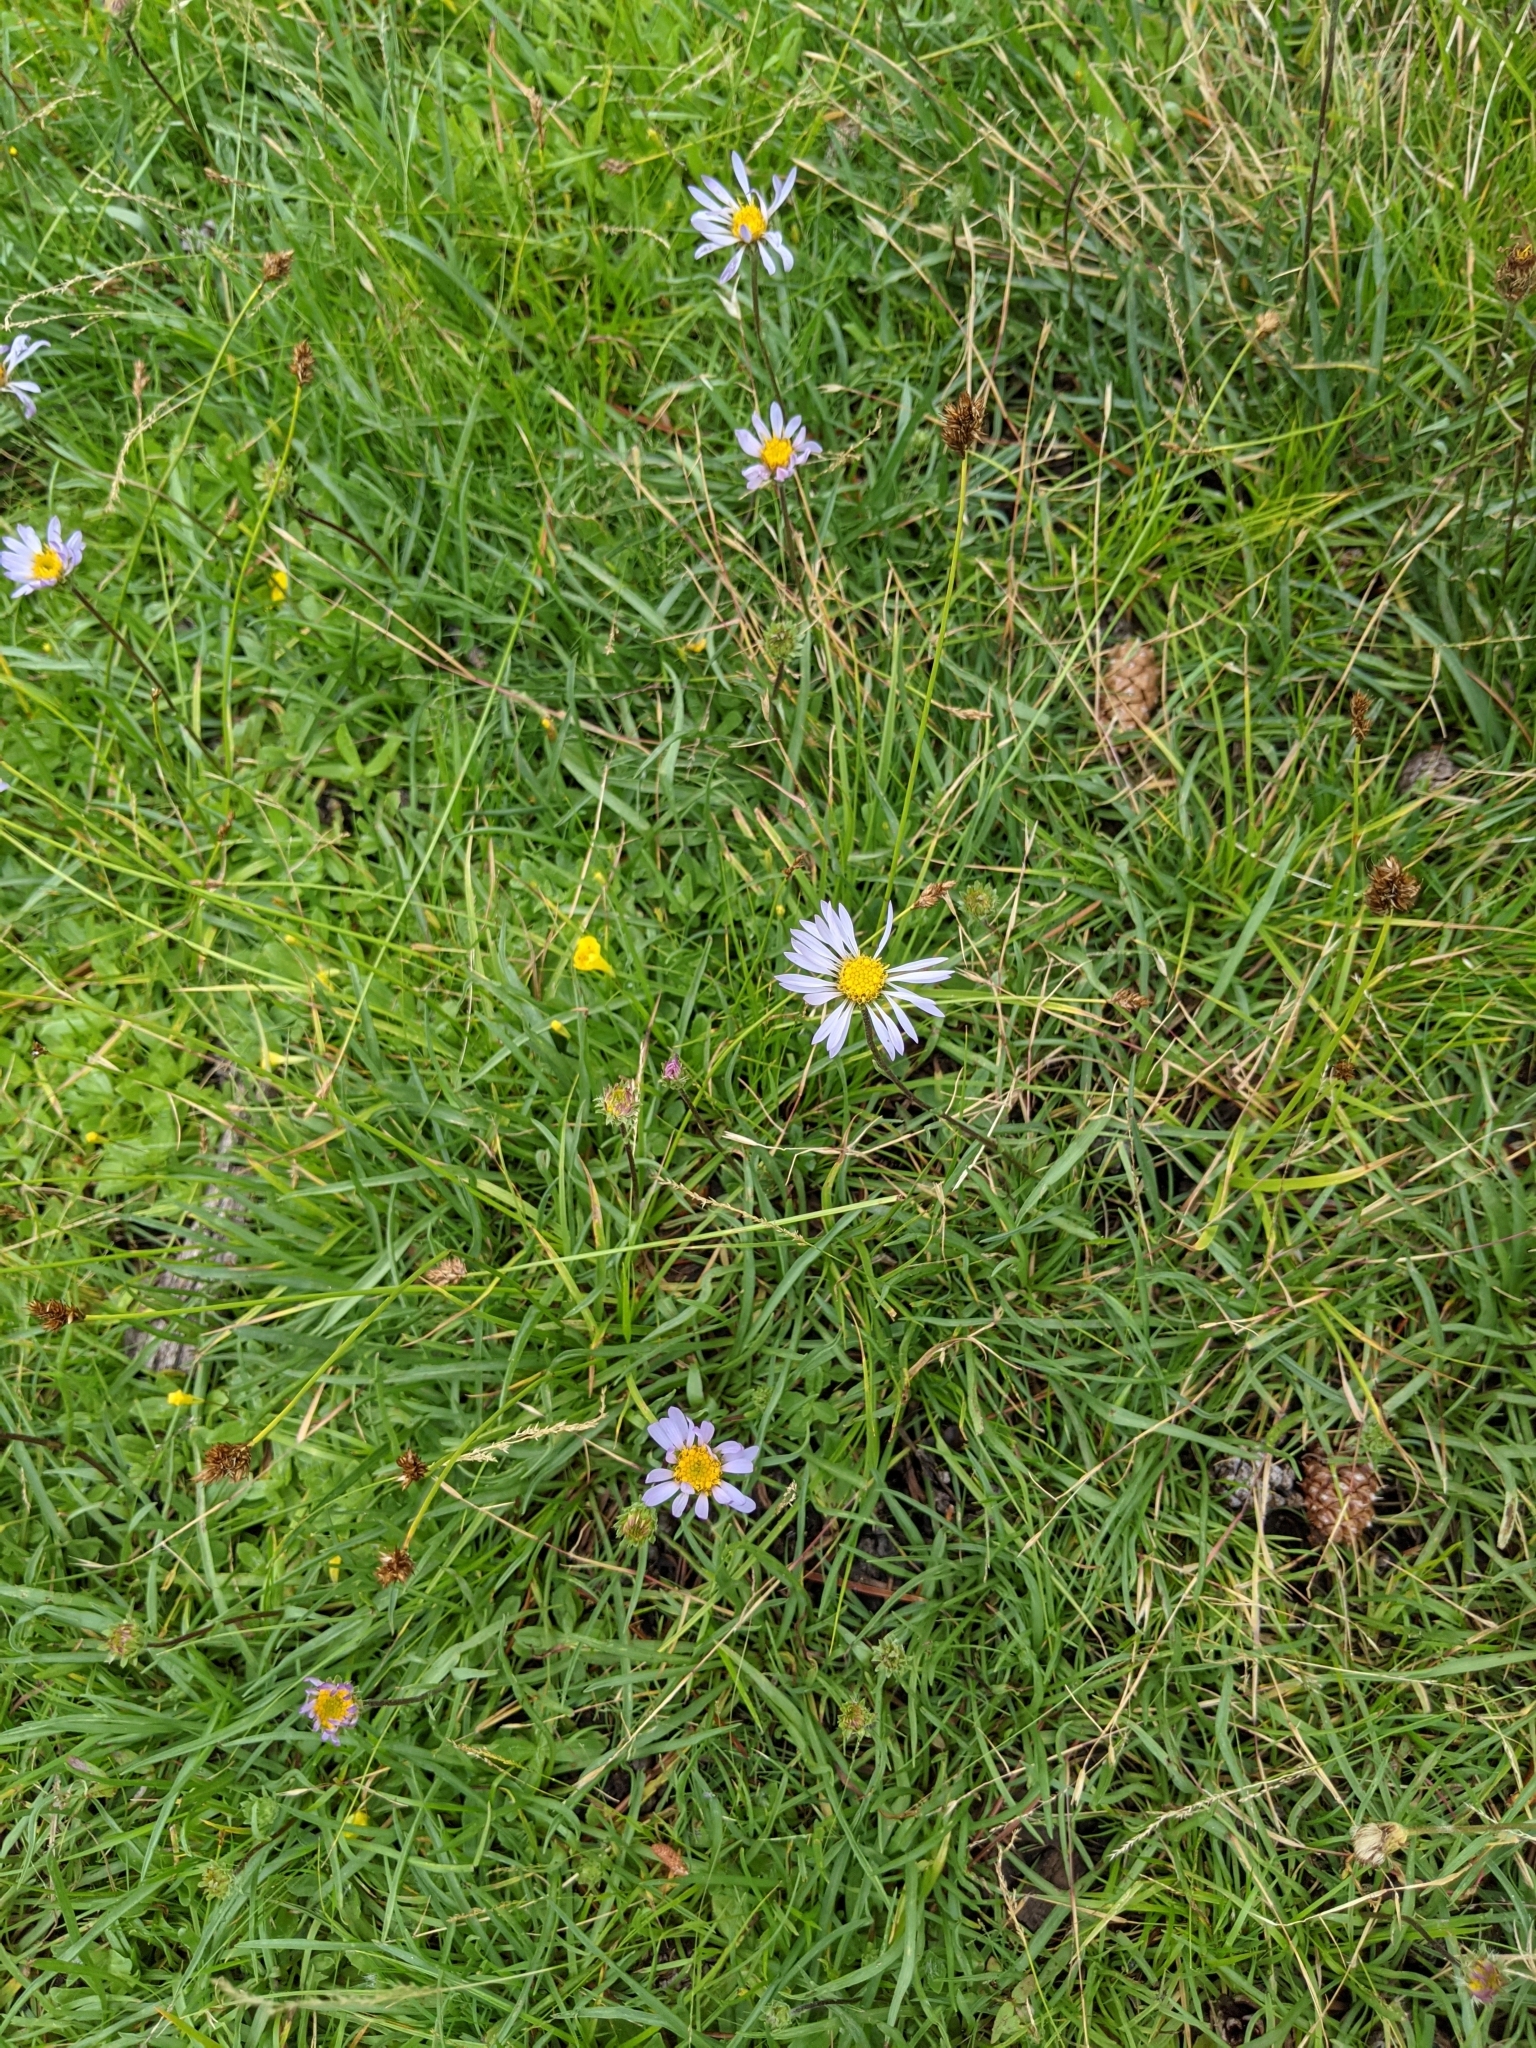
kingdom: Plantae
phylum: Tracheophyta
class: Magnoliopsida
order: Asterales
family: Asteraceae
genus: Oreostemma
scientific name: Oreostemma alpigenum
